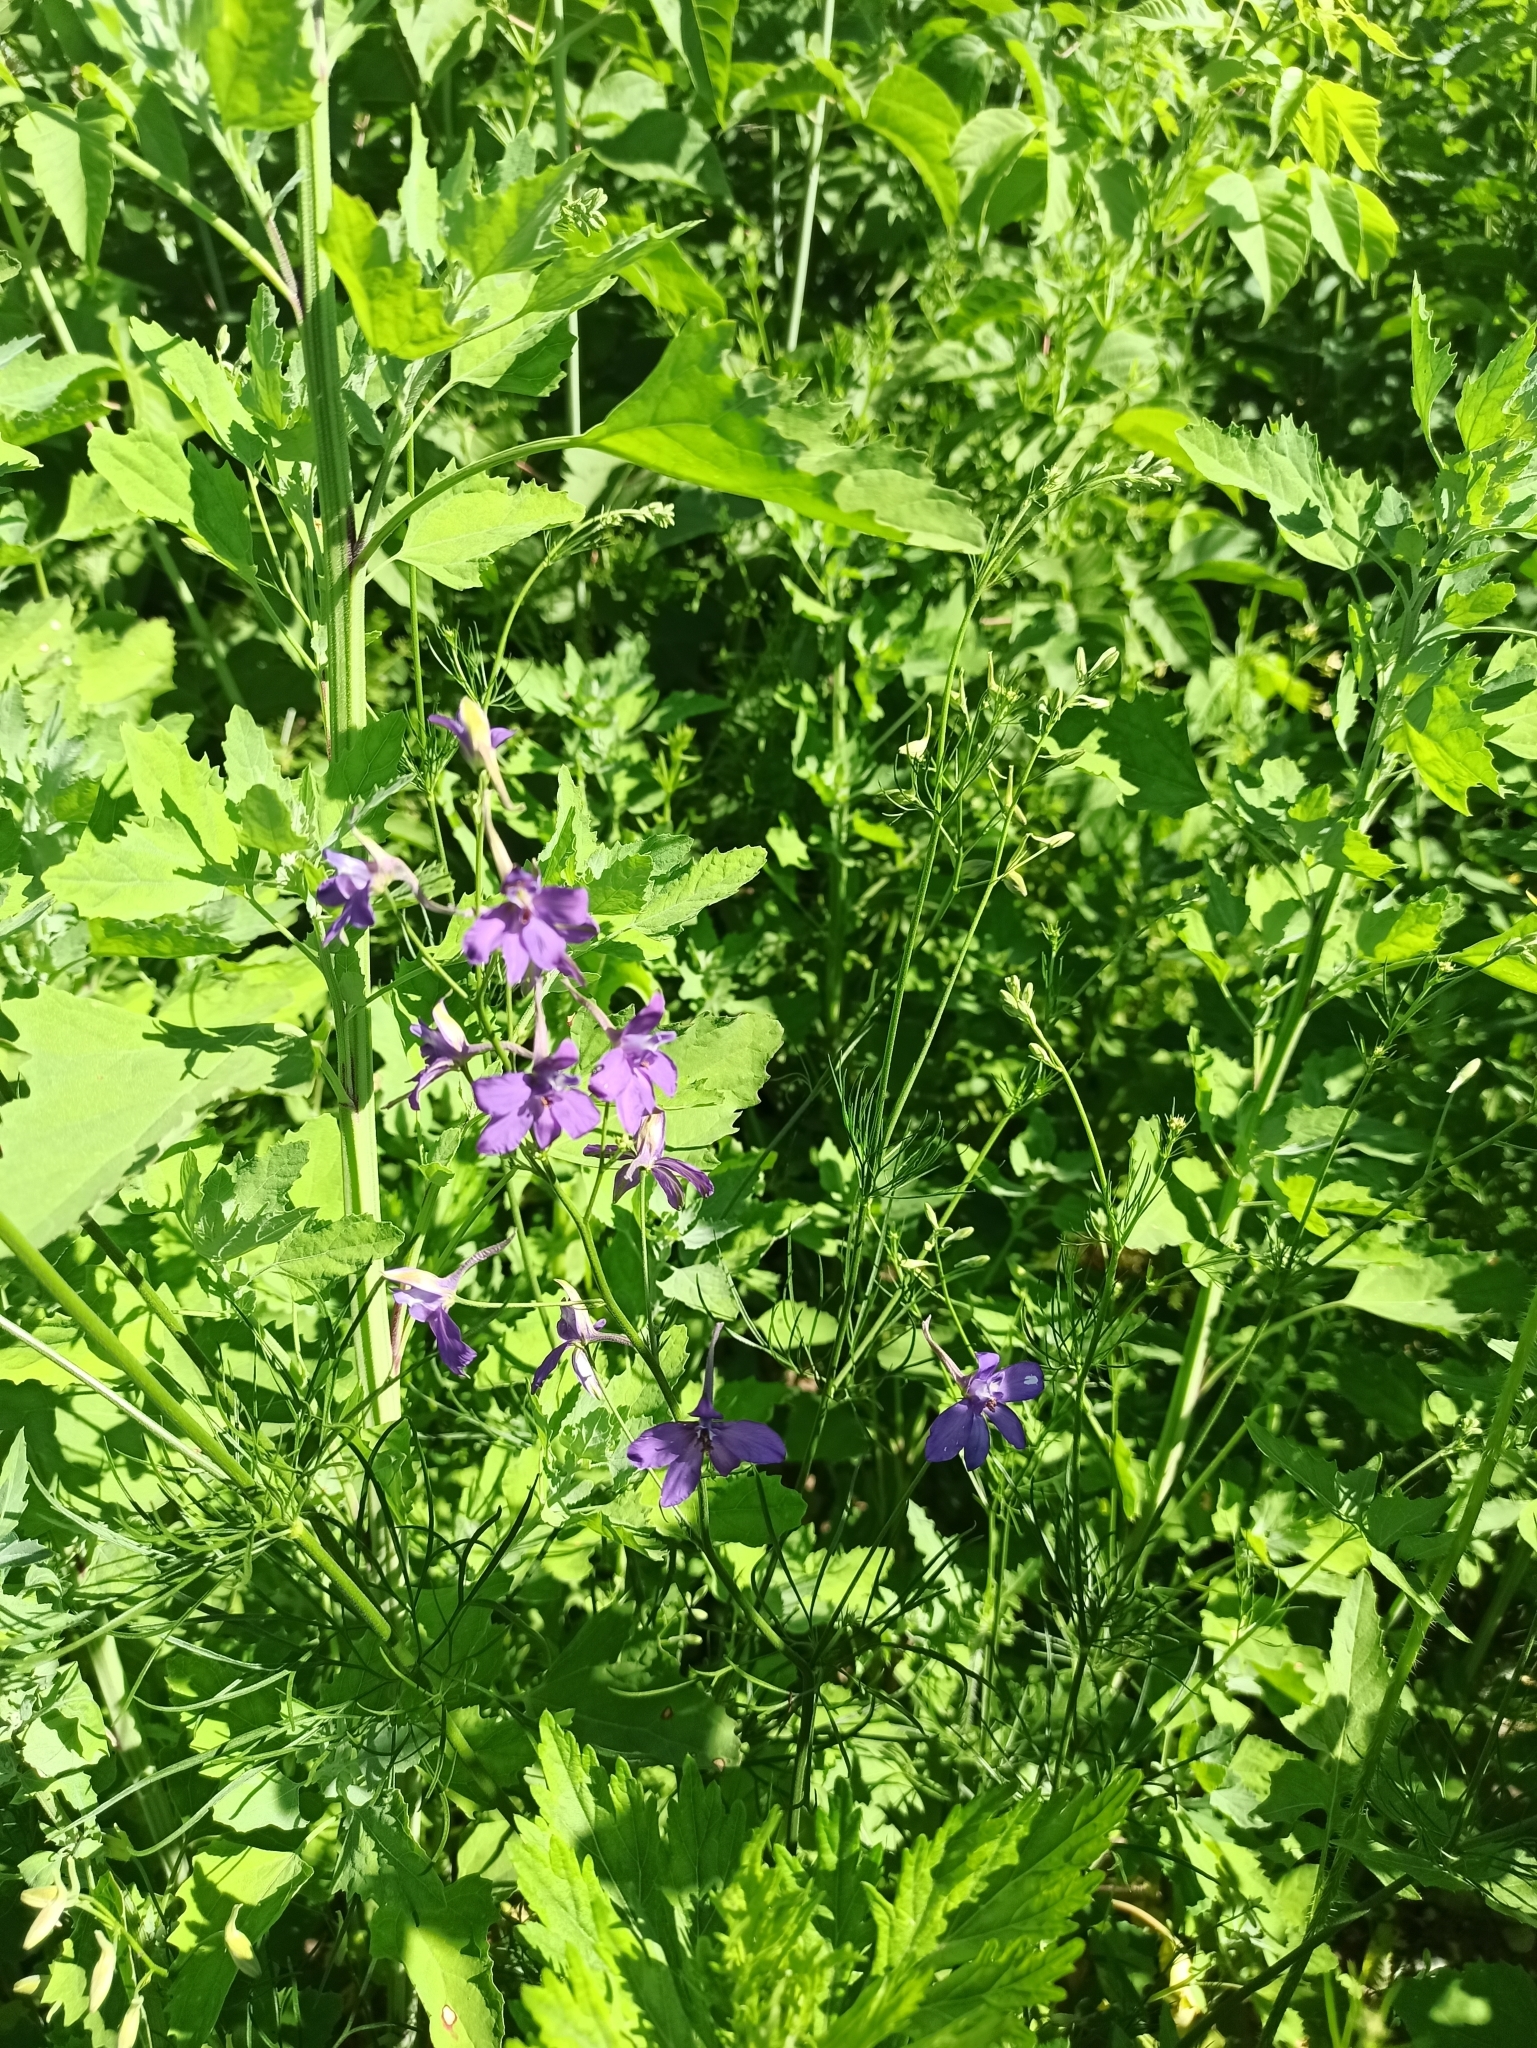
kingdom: Plantae
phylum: Tracheophyta
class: Magnoliopsida
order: Ranunculales
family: Ranunculaceae
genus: Delphinium
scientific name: Delphinium consolida
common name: Branching larkspur
